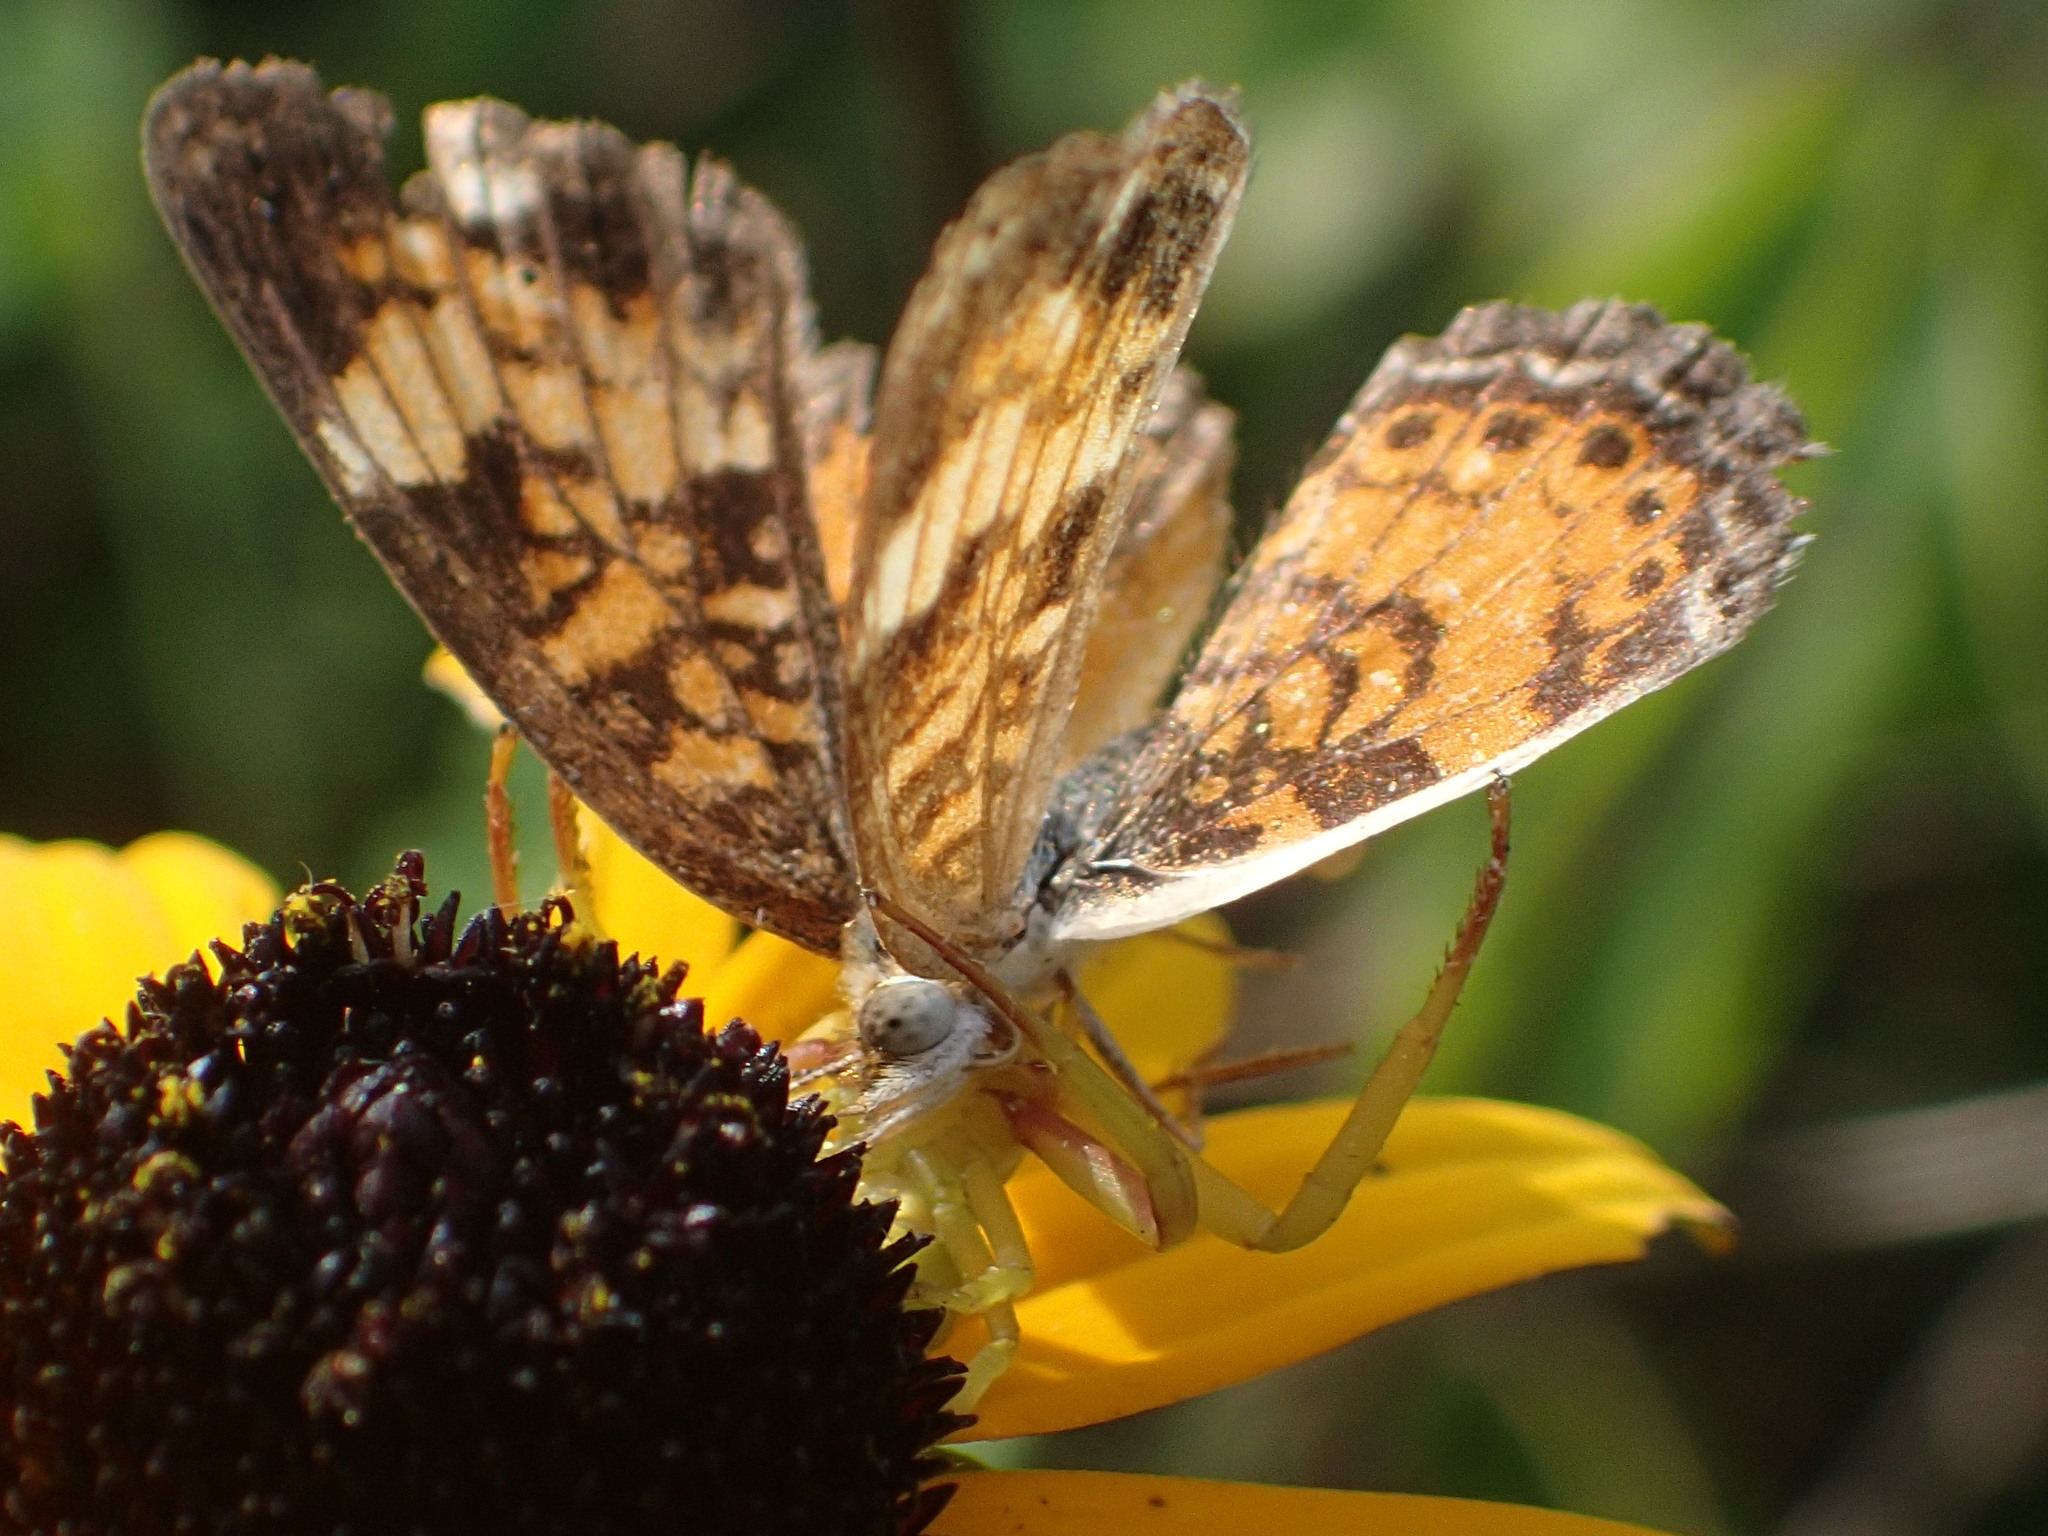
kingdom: Animalia
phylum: Arthropoda
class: Insecta
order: Lepidoptera
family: Nymphalidae
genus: Phyciodes
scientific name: Phyciodes tharos
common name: Pearl crescent
